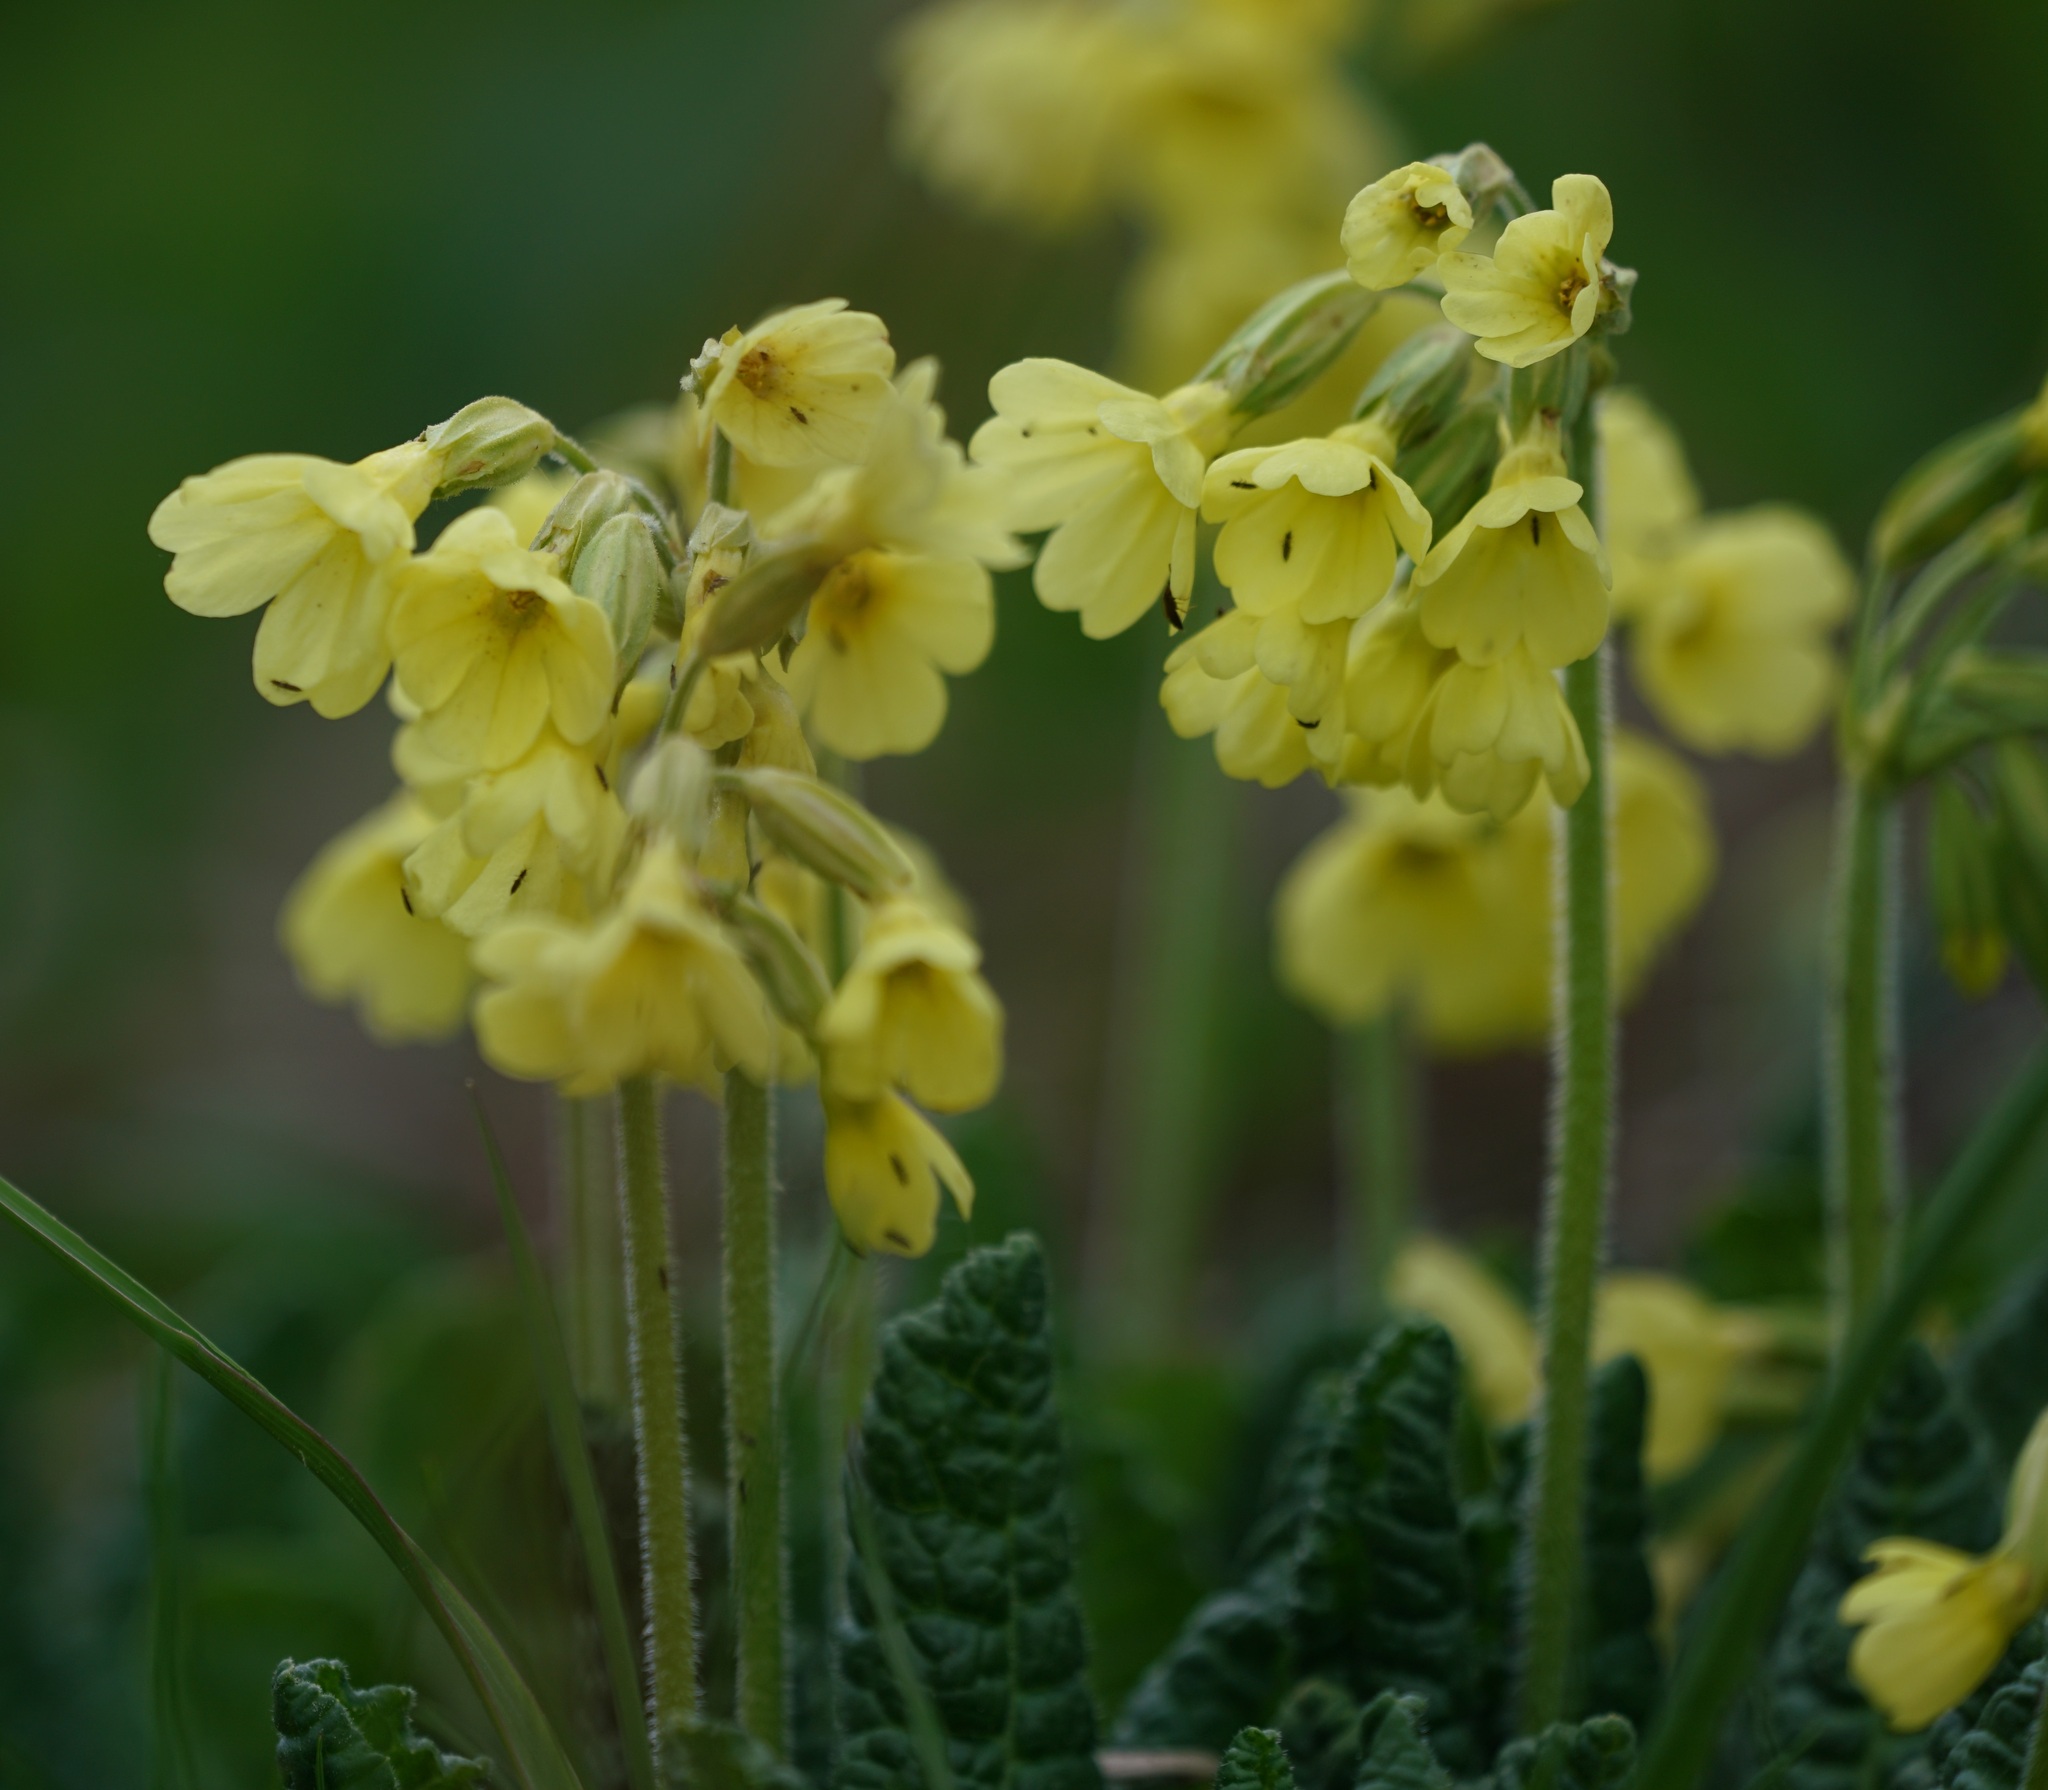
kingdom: Plantae
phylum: Tracheophyta
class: Magnoliopsida
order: Ericales
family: Primulaceae
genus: Primula
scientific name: Primula elatior
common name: Oxlip
